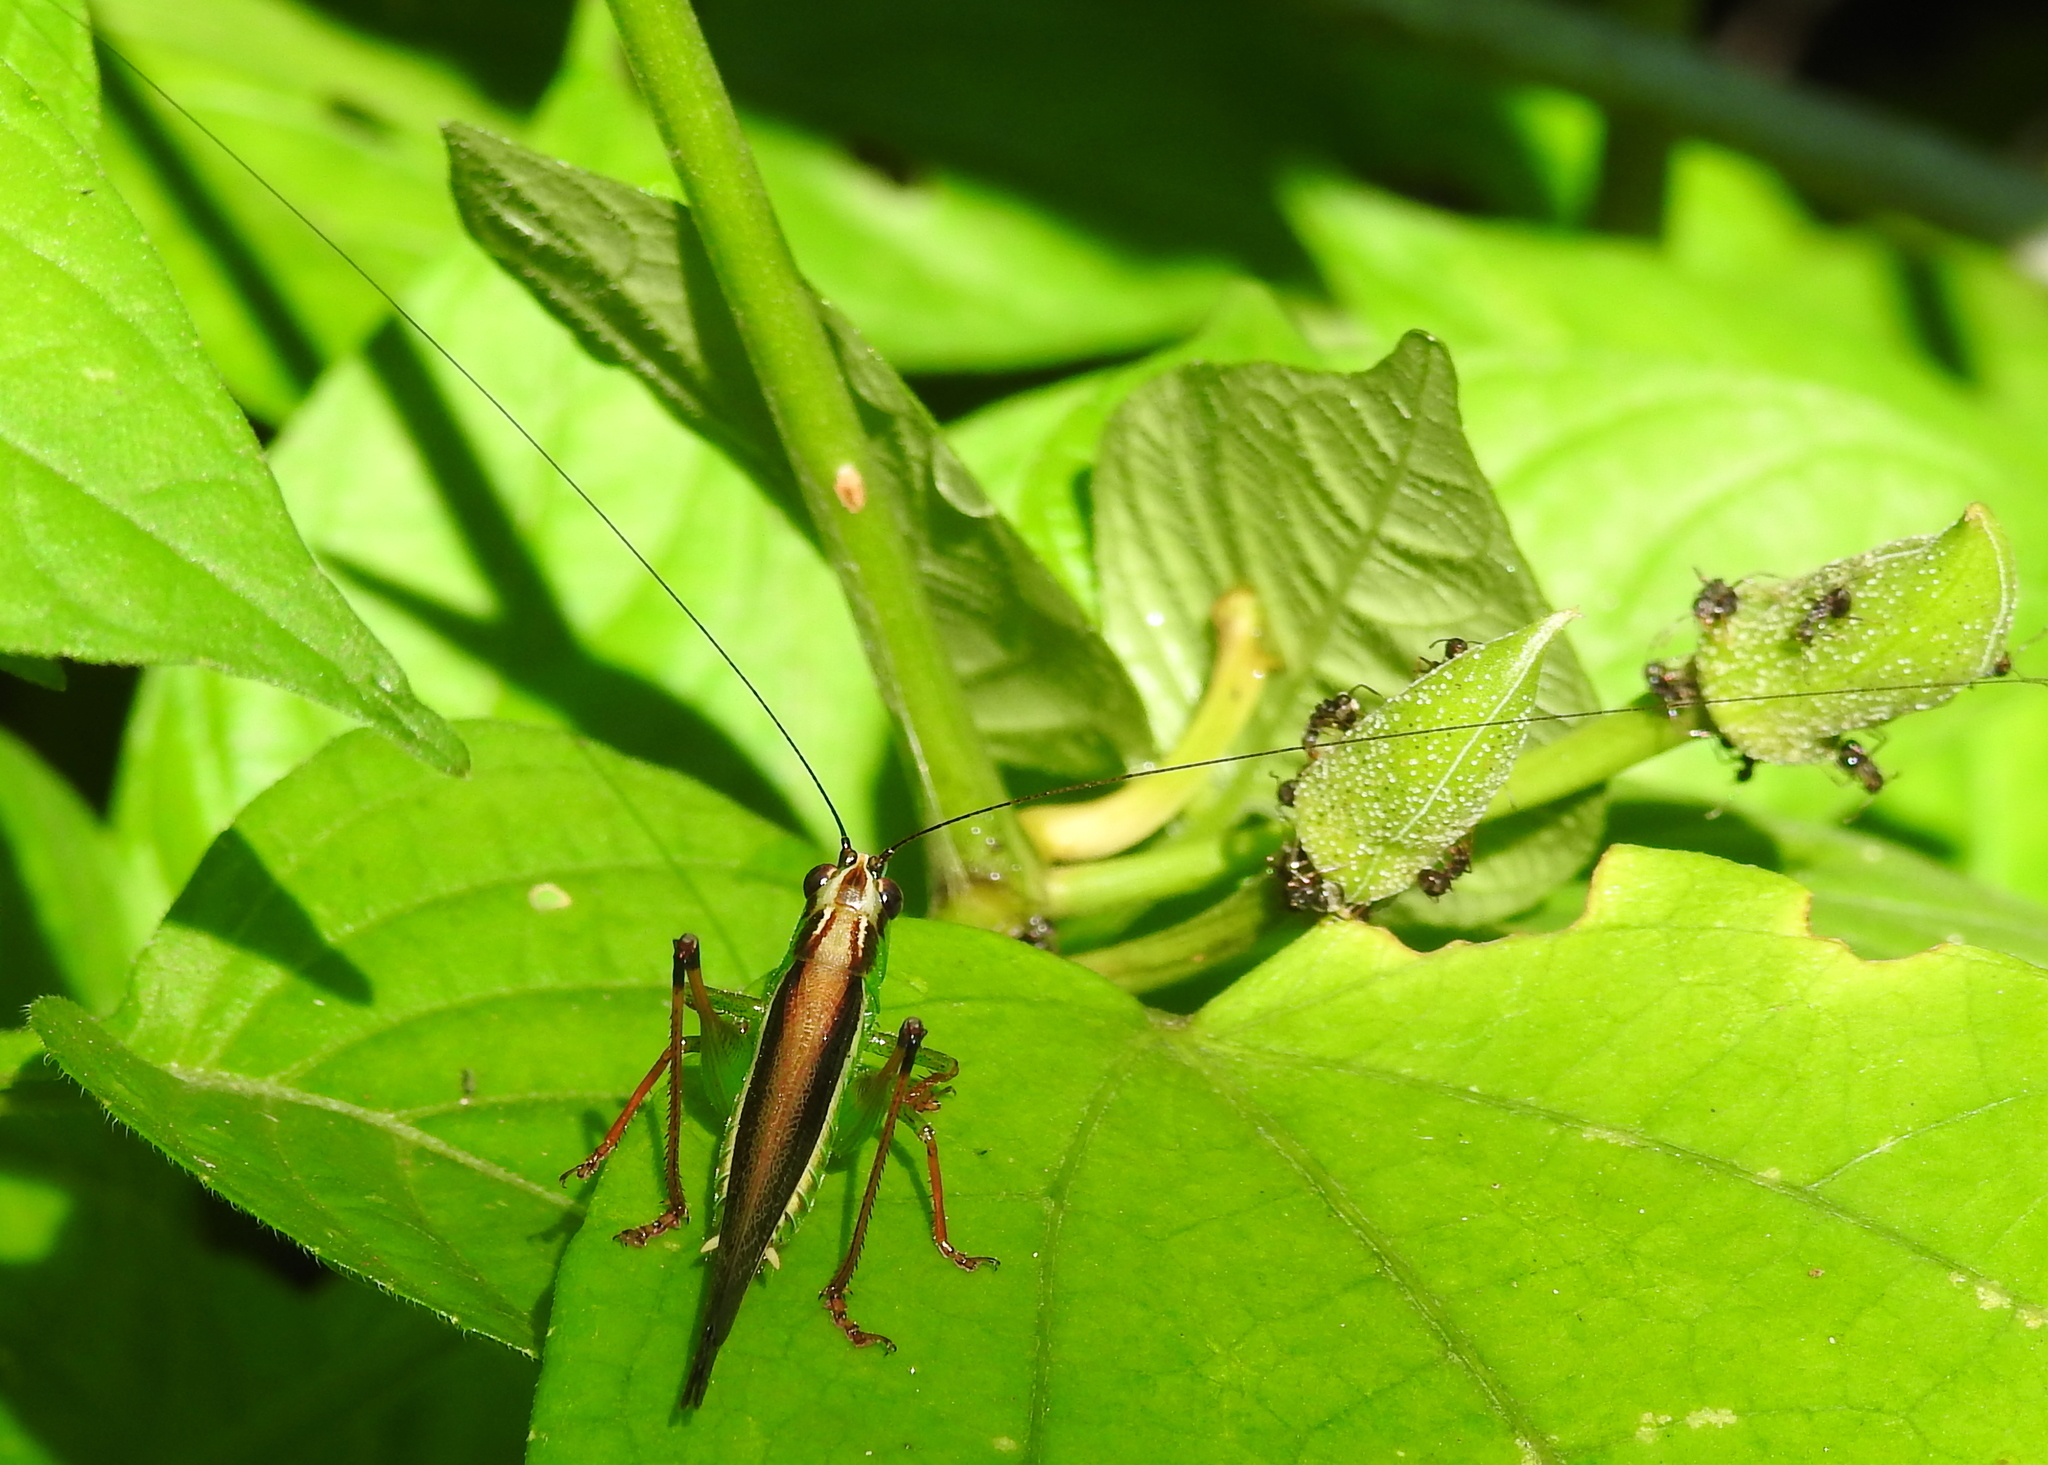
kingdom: Animalia
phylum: Arthropoda
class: Insecta
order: Orthoptera
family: Tettigoniidae
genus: Conocephalus
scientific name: Conocephalus melaenus
